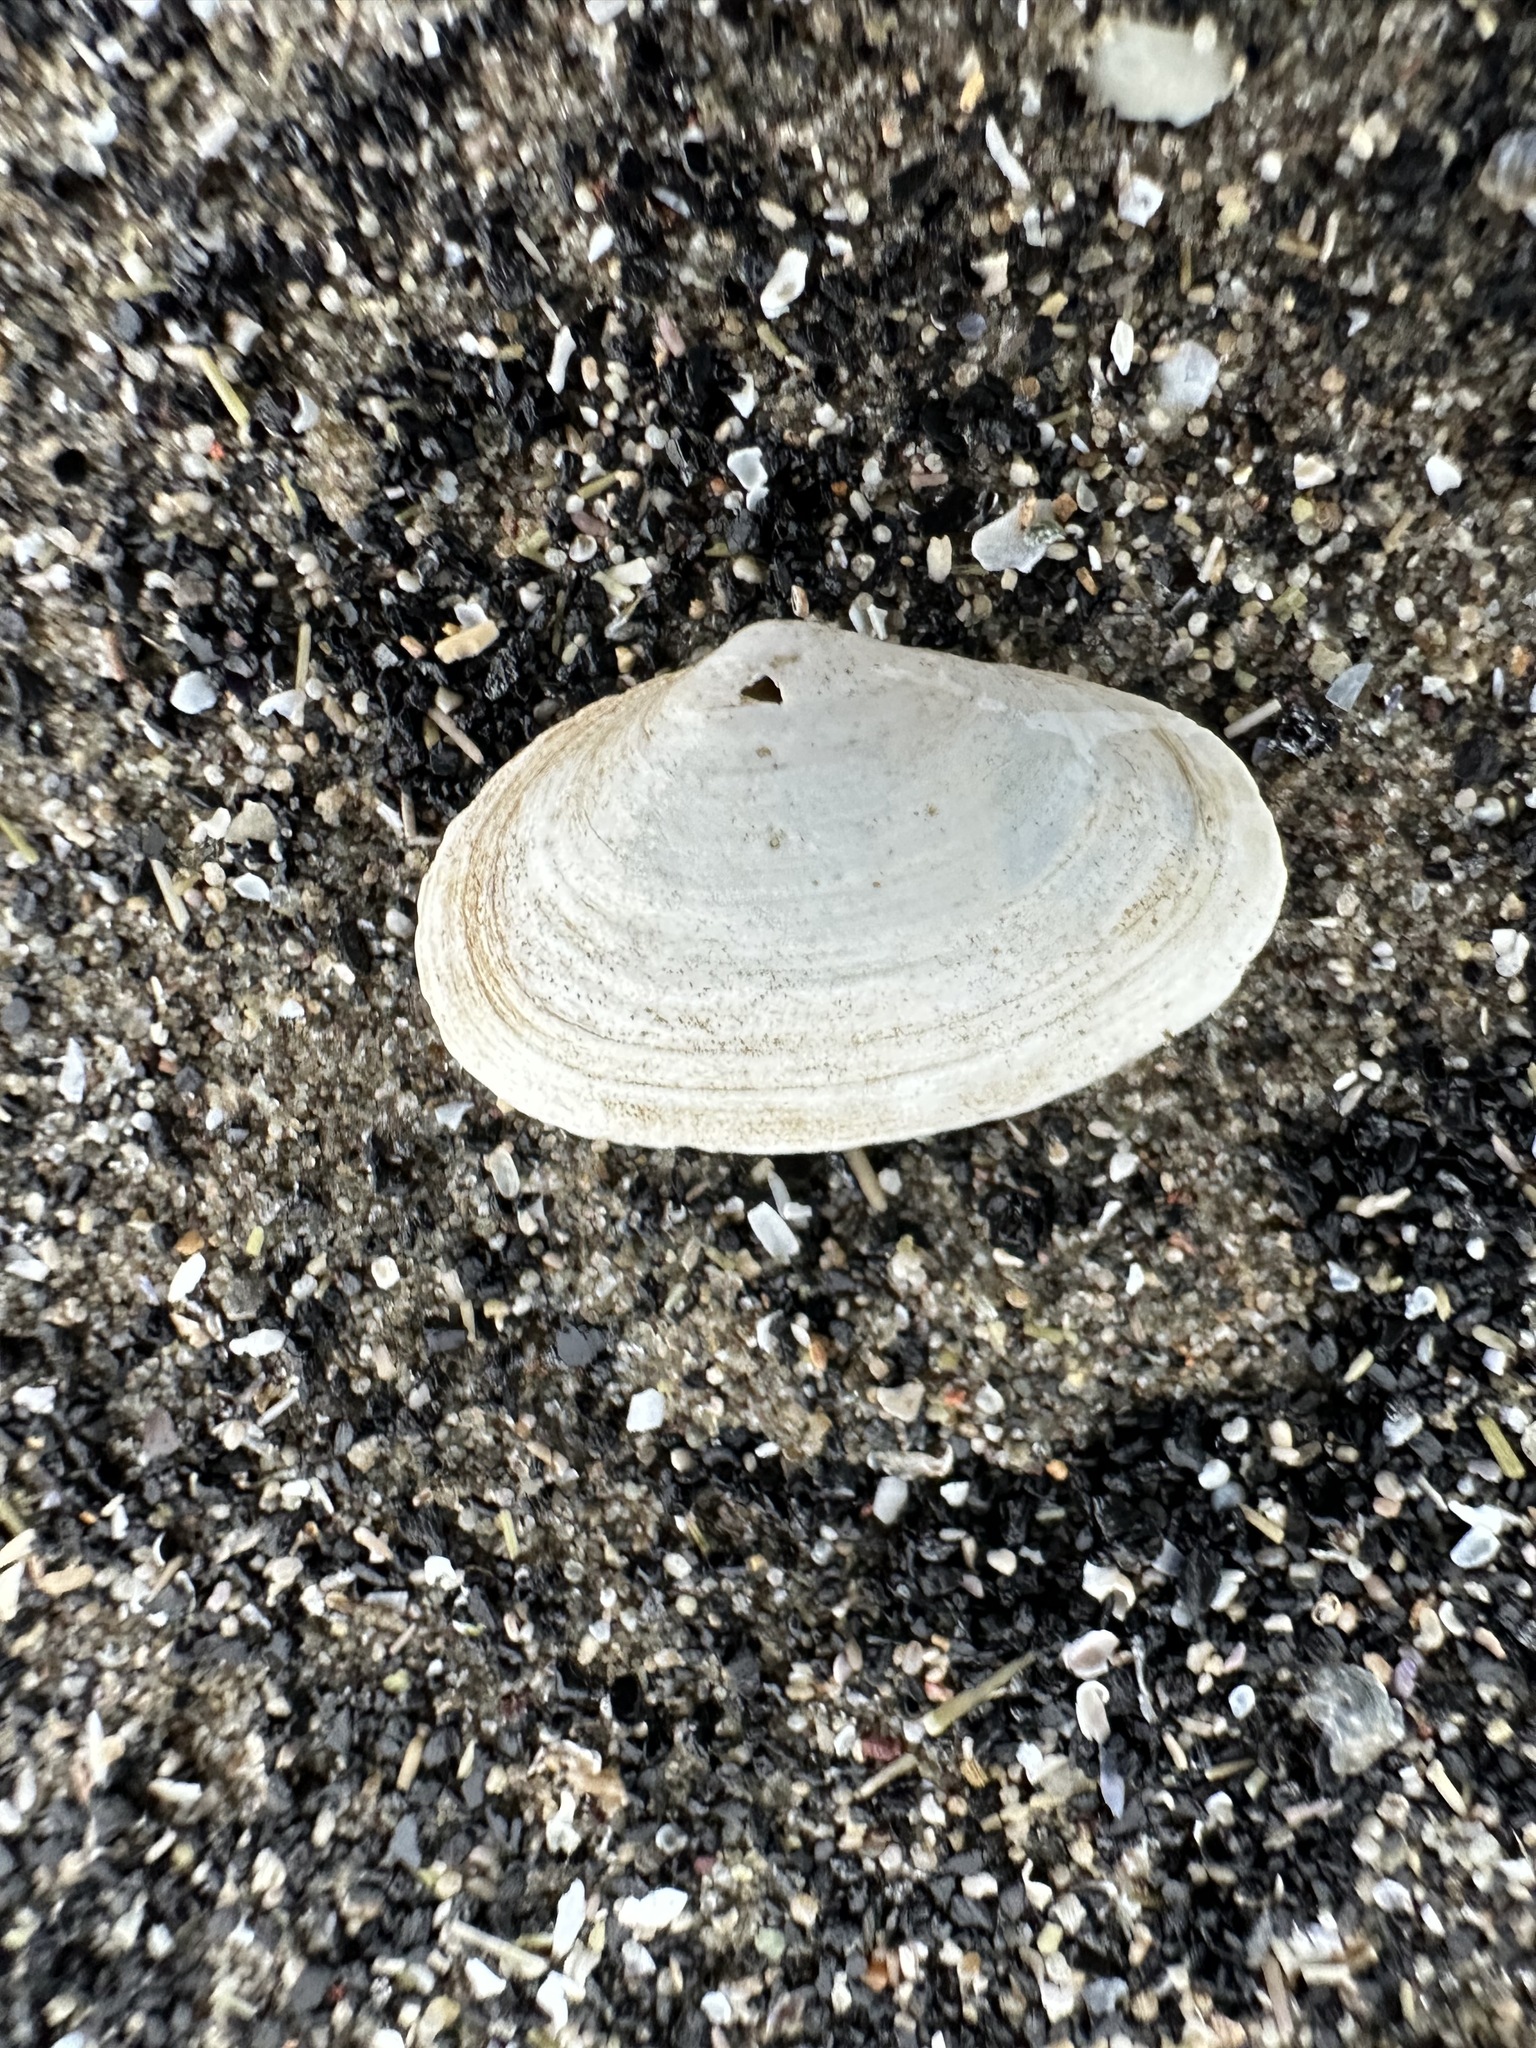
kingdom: Animalia
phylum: Mollusca
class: Bivalvia
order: Myida
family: Myidae
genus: Mya
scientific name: Mya arenaria
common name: Soft-shelled clam
